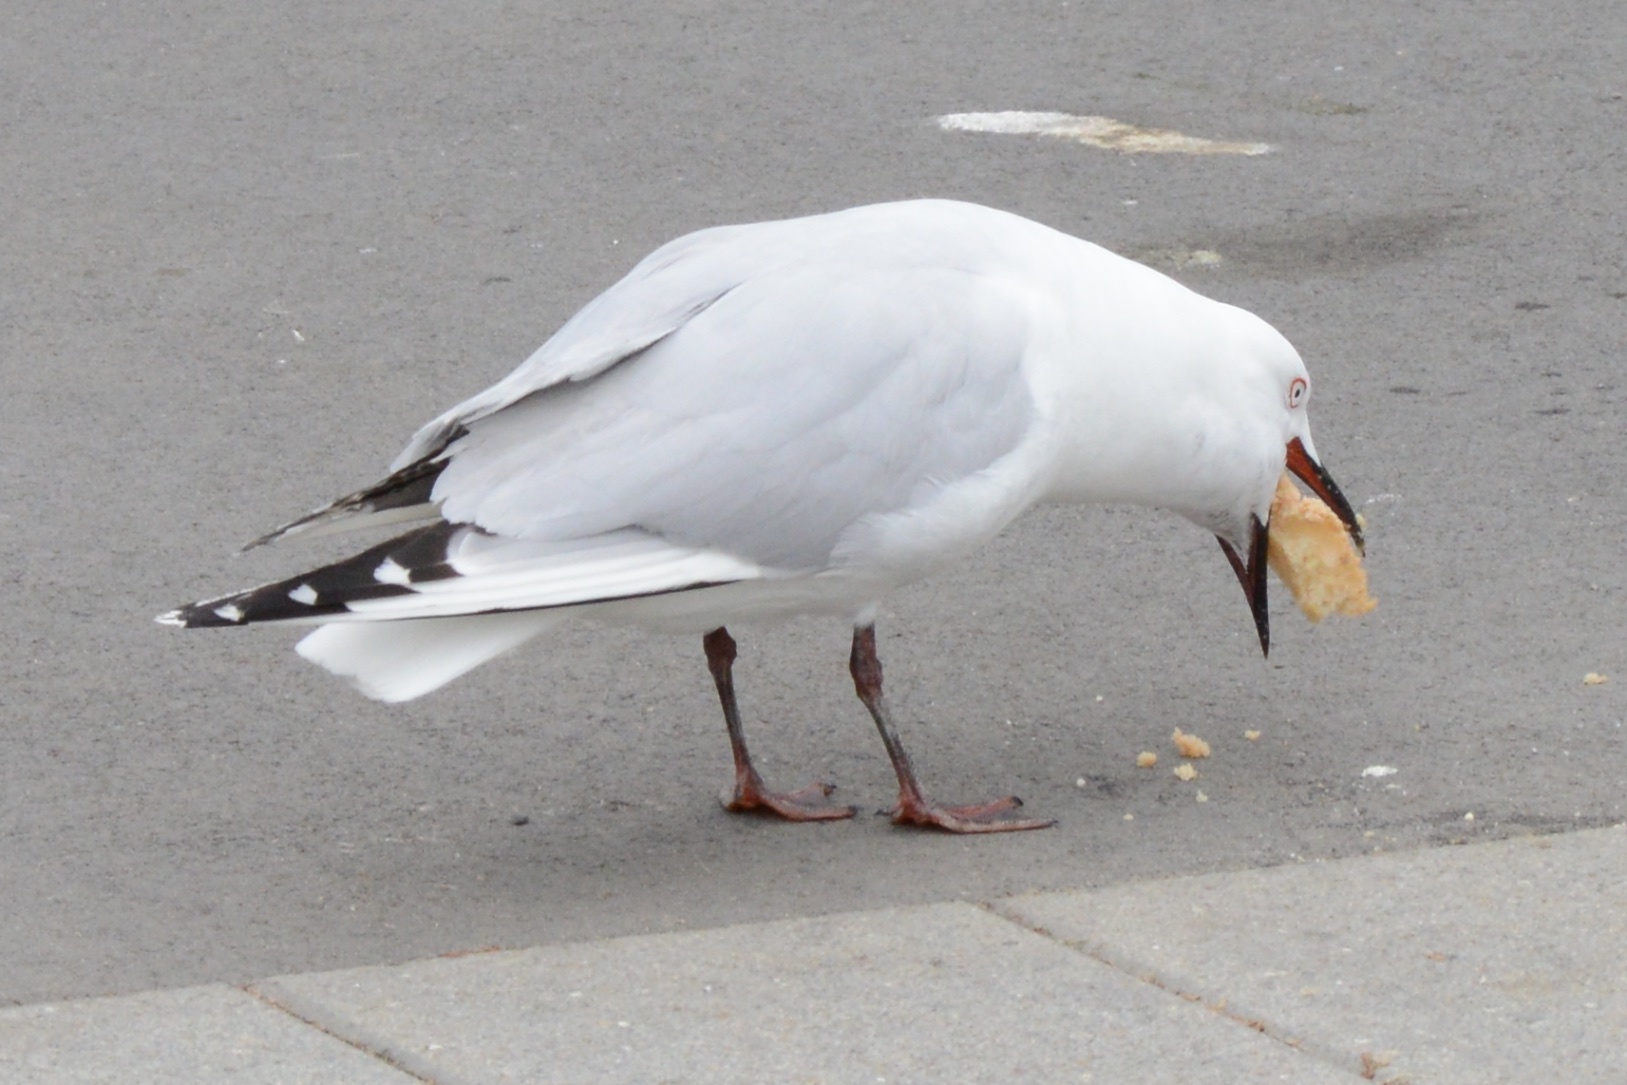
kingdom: Animalia
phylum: Chordata
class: Aves
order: Charadriiformes
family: Laridae
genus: Chroicocephalus
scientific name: Chroicocephalus bulleri
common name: Black-billed gull
